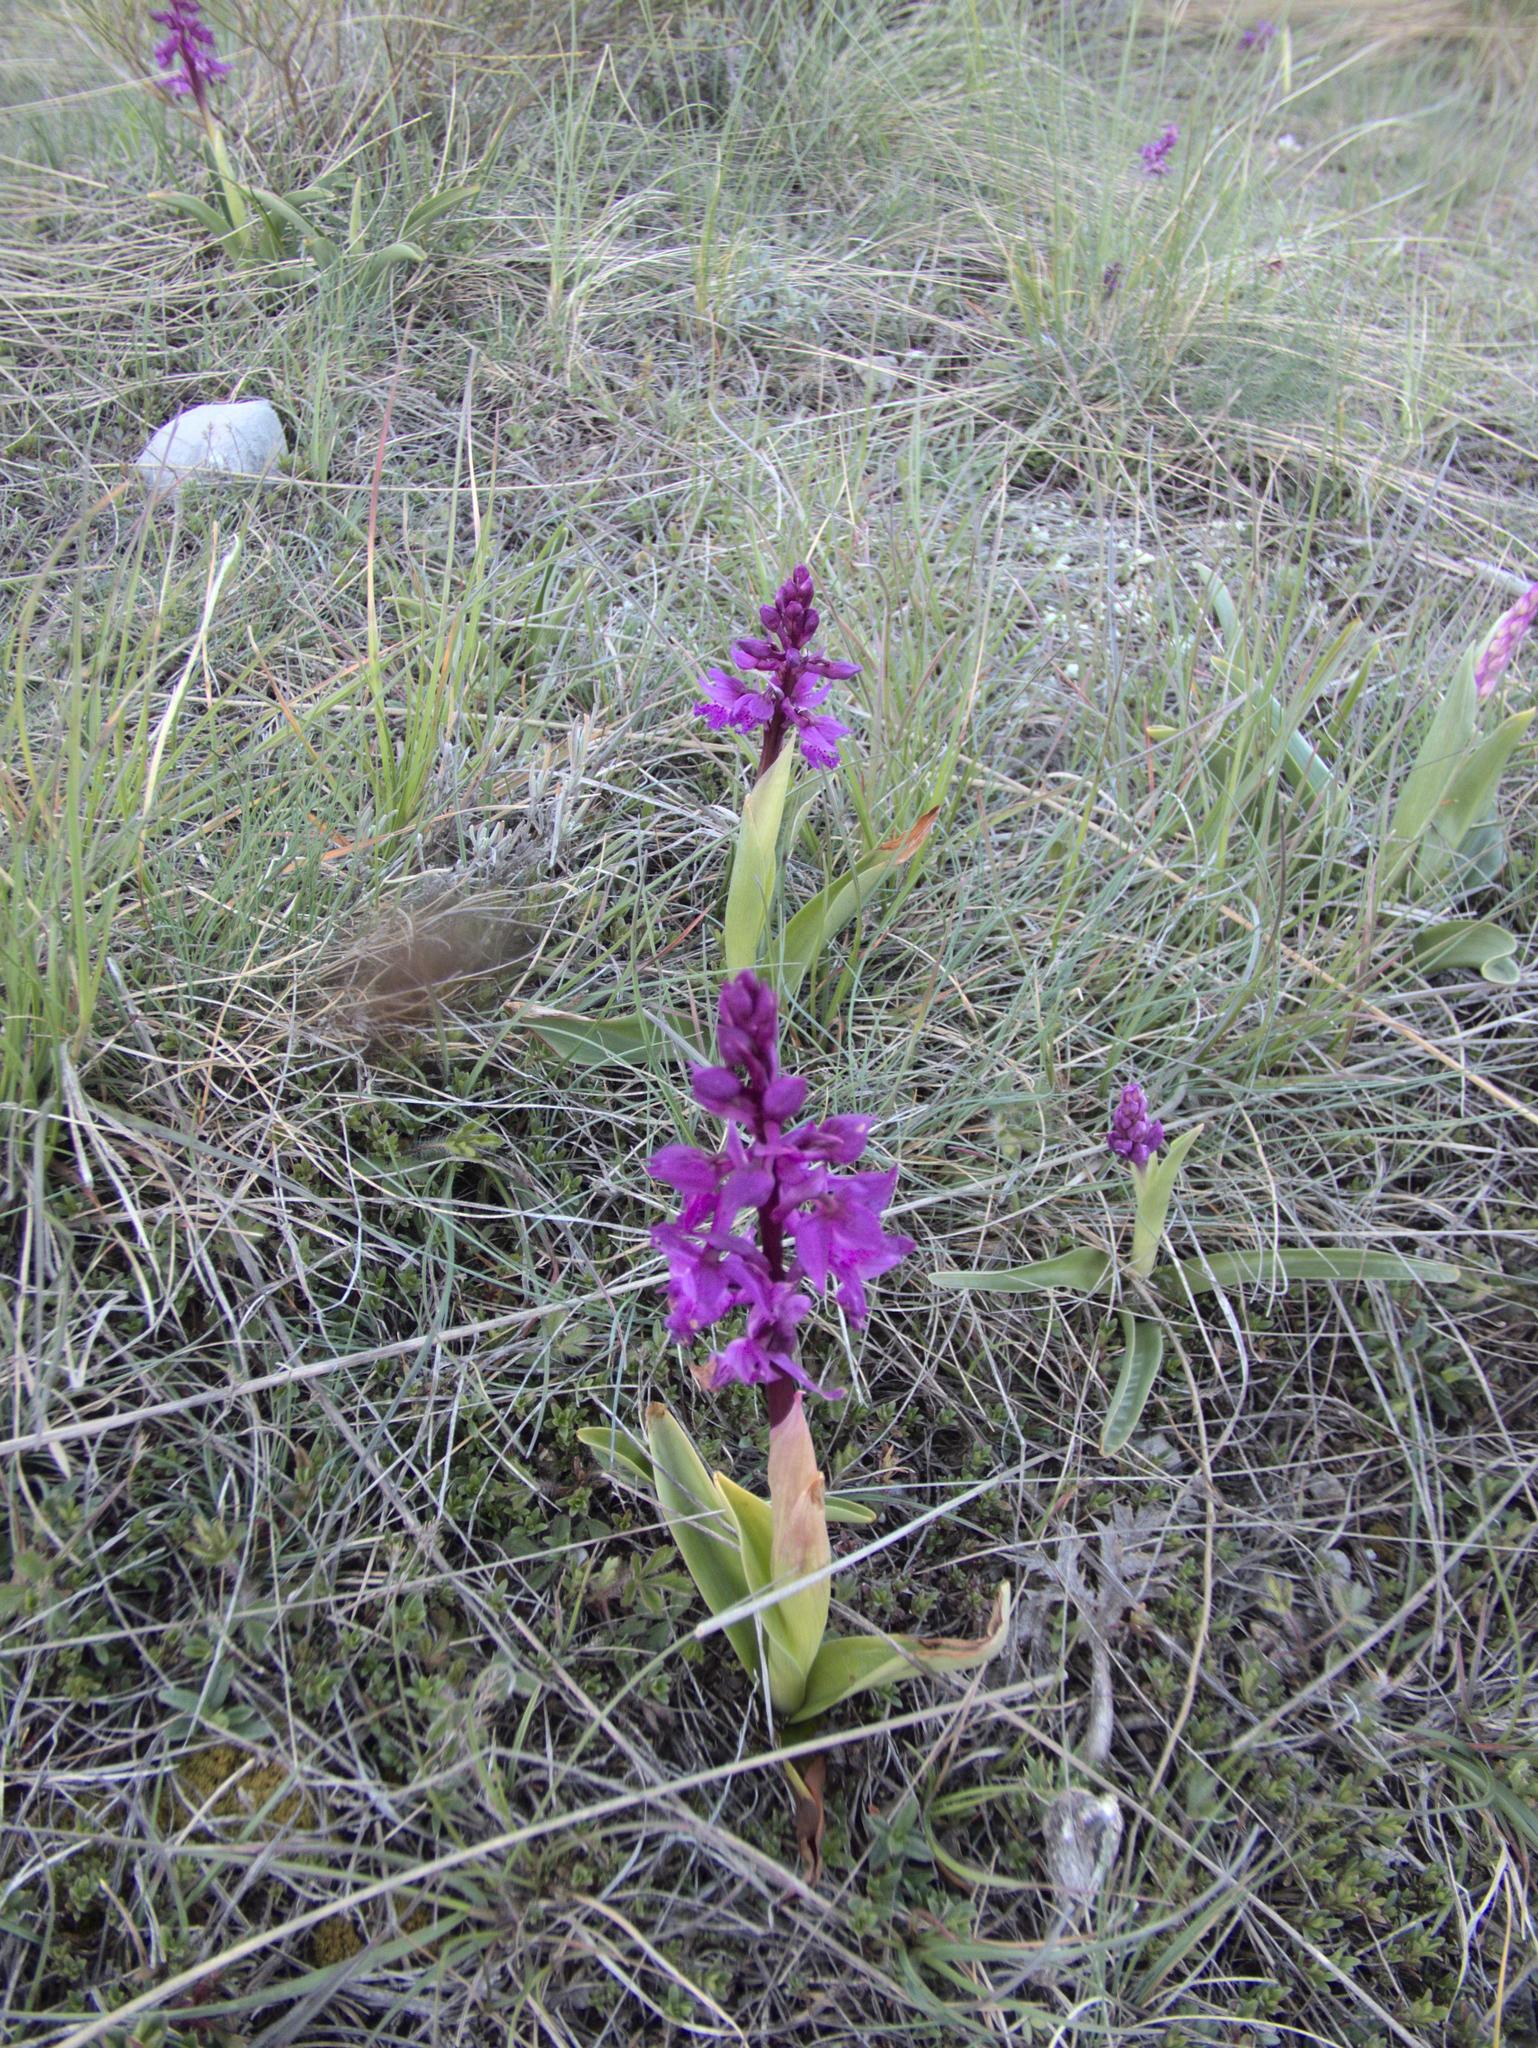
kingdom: Plantae
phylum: Tracheophyta
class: Liliopsida
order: Asparagales
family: Orchidaceae
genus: Orchis
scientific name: Orchis mascula
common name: Early-purple orchid
